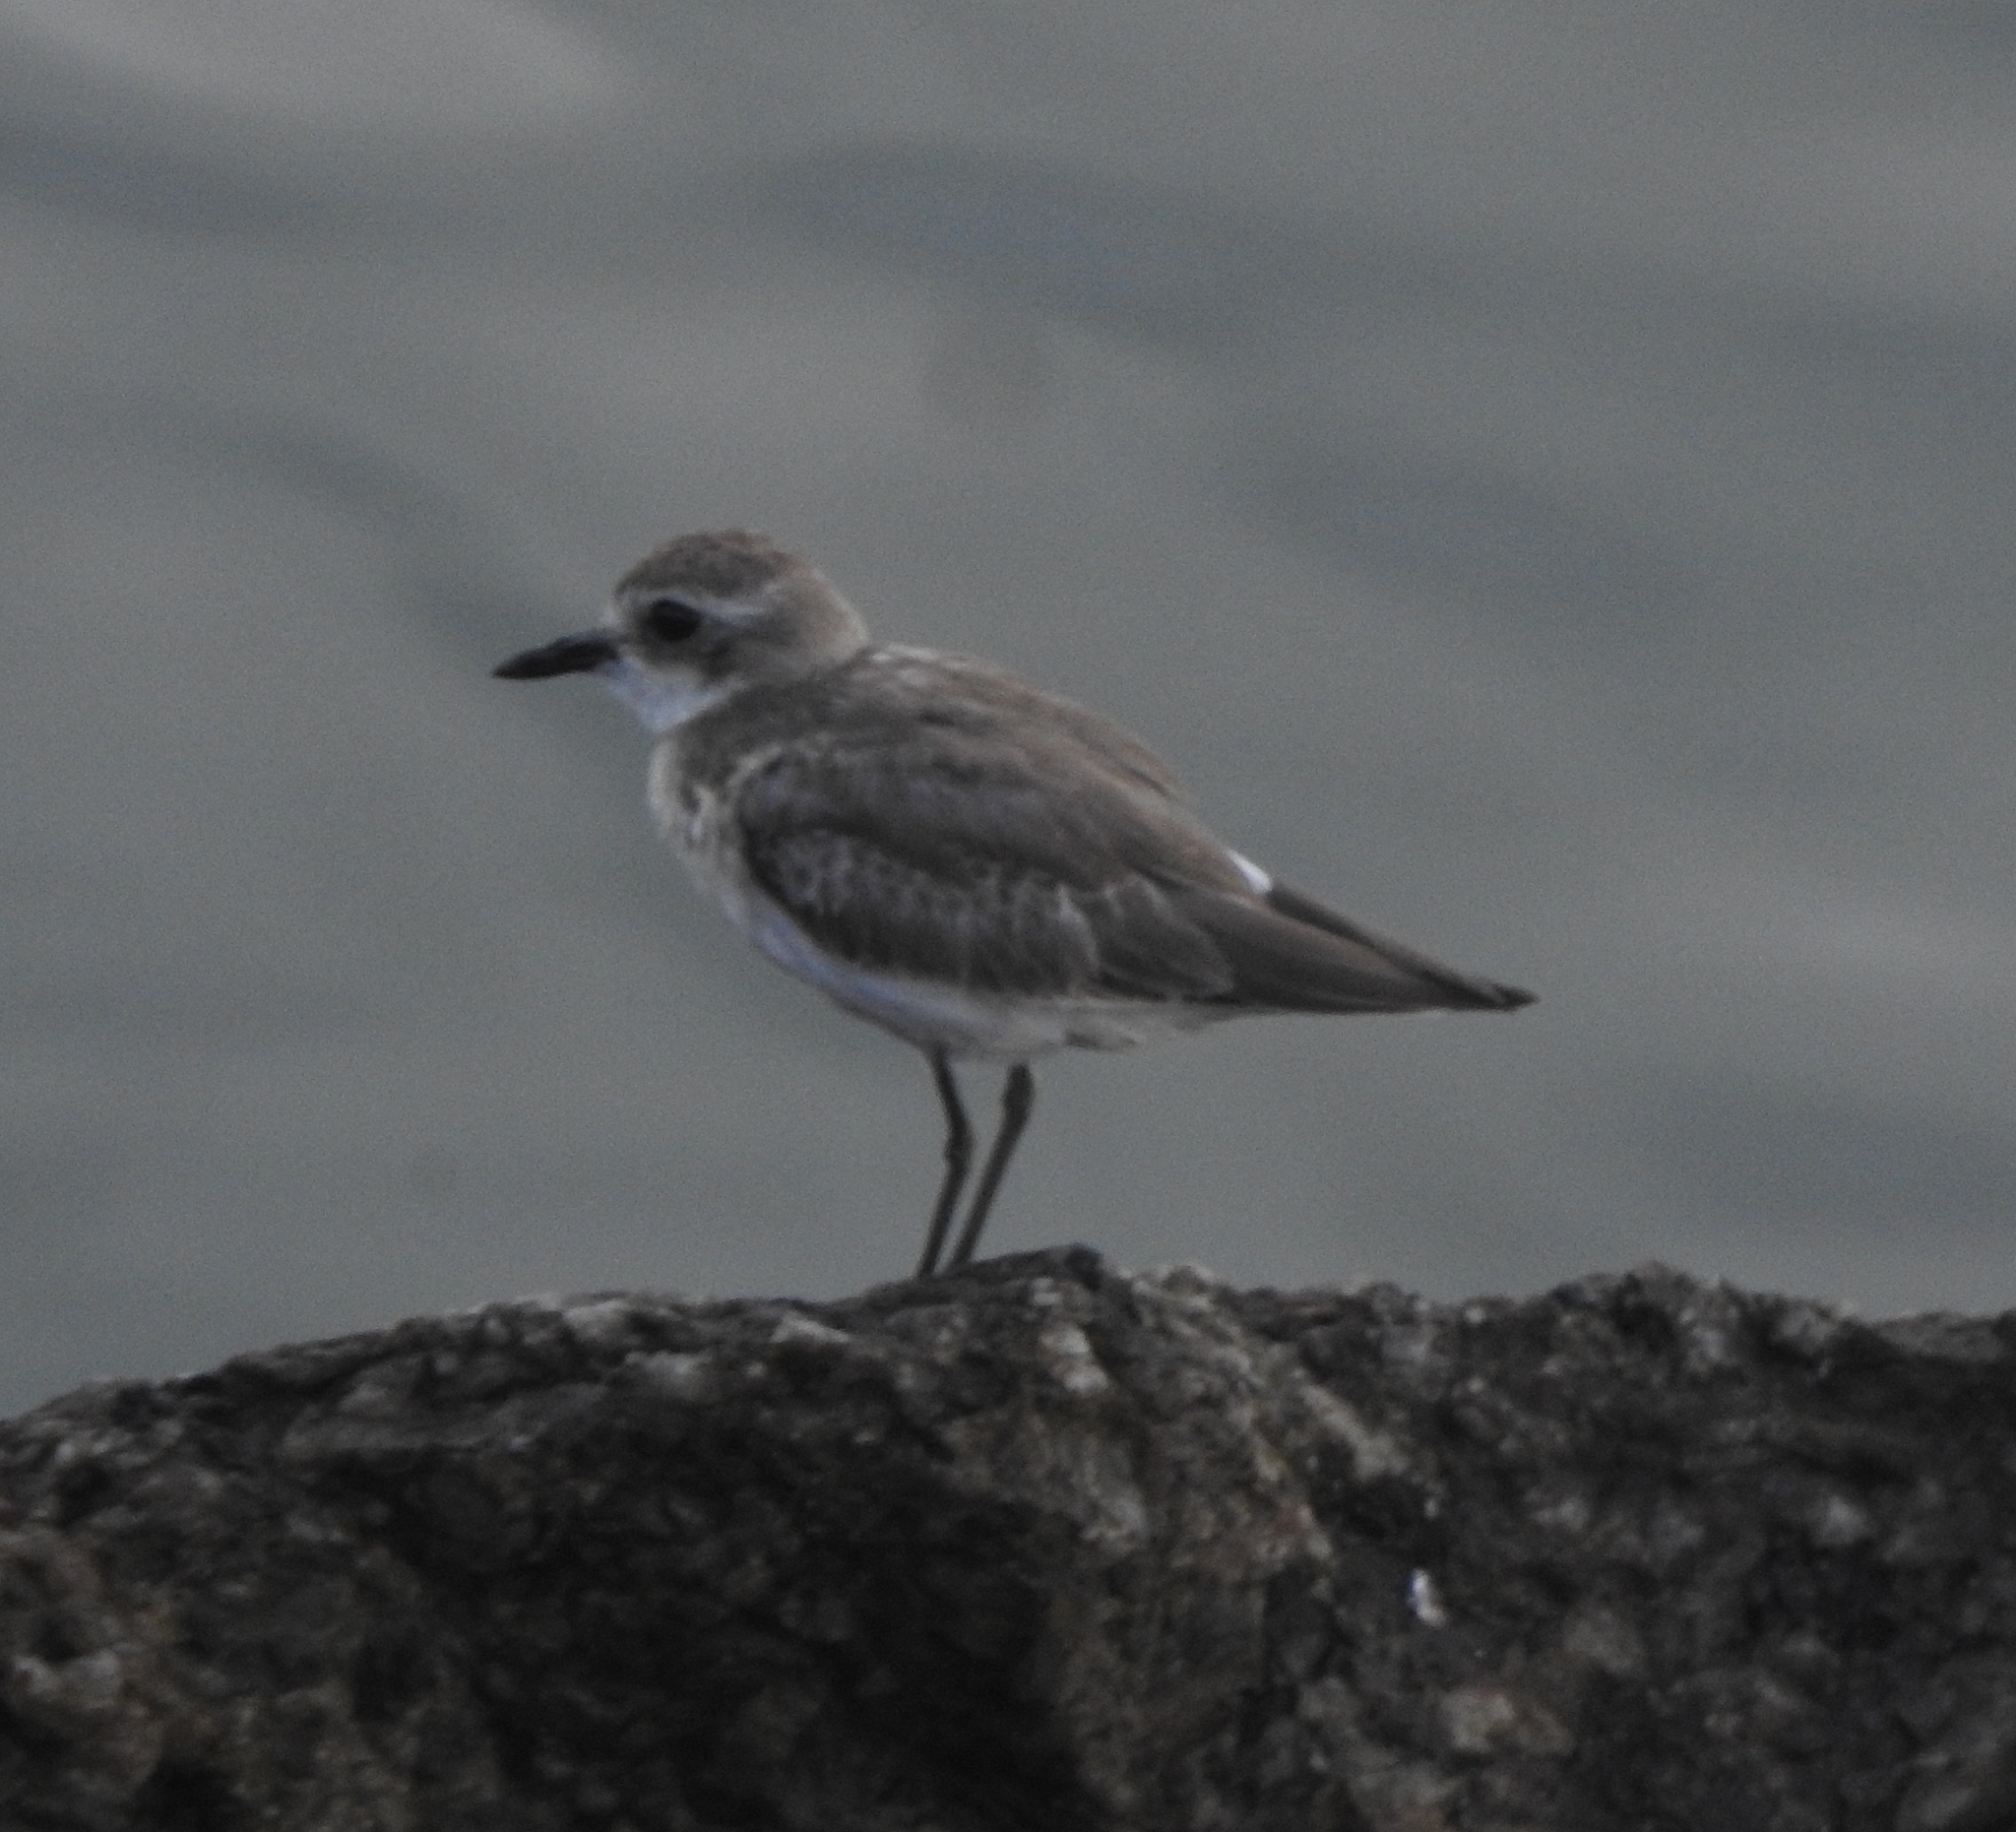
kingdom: Animalia
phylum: Chordata
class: Aves
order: Charadriiformes
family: Charadriidae
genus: Anarhynchus
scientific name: Anarhynchus
